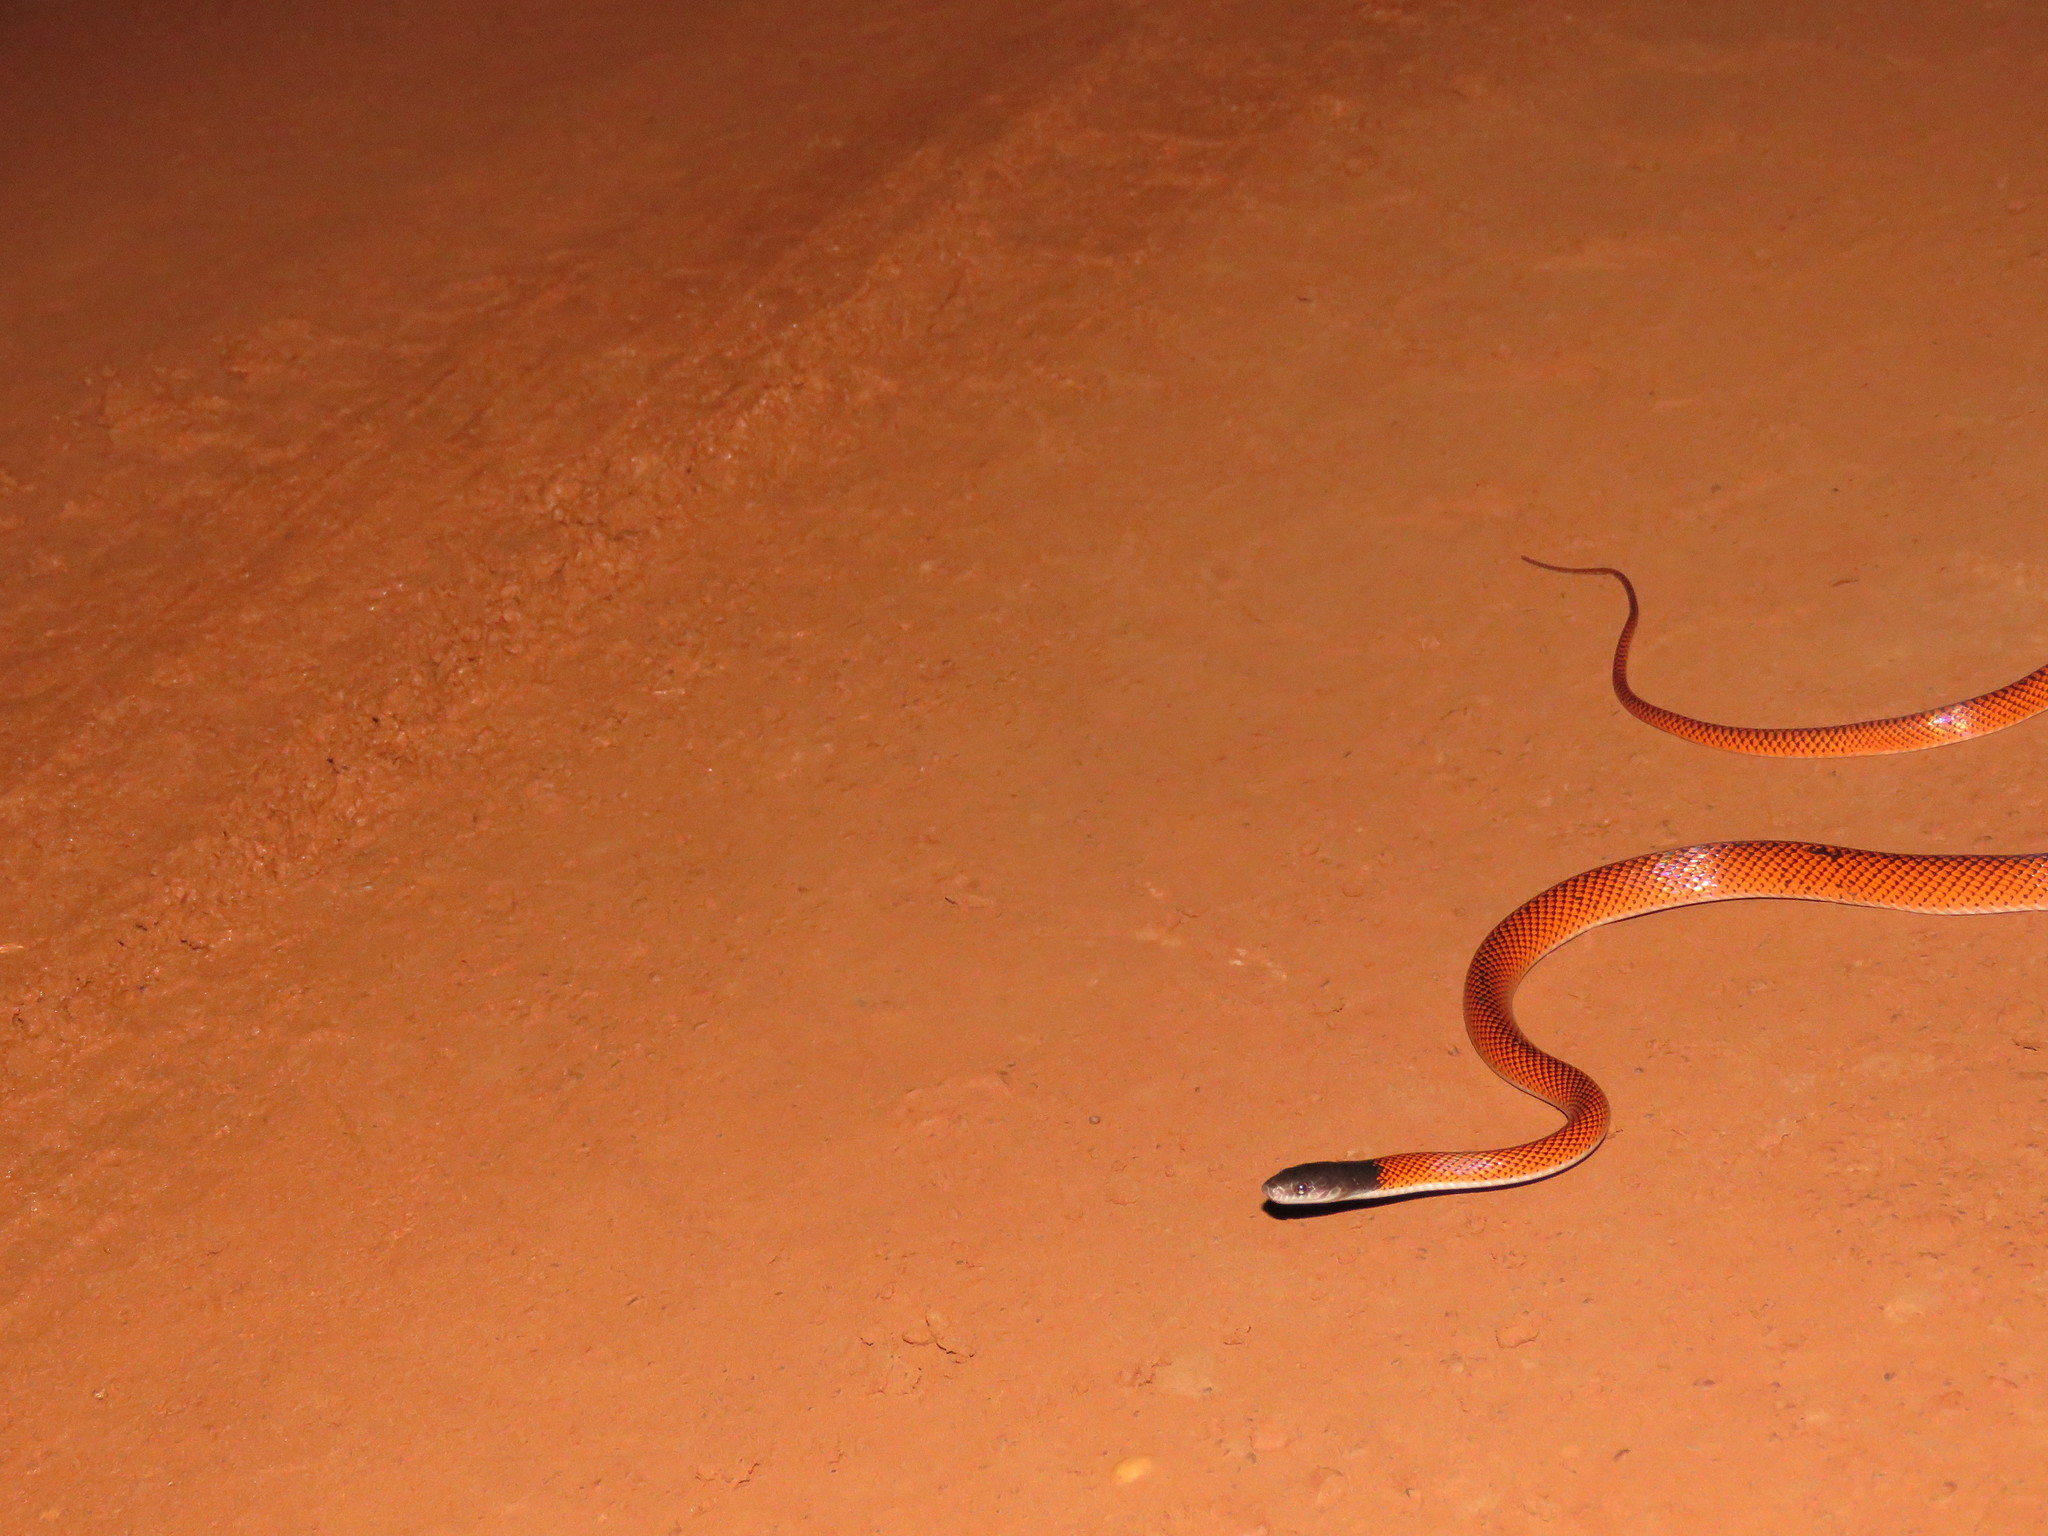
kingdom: Animalia
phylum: Chordata
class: Squamata
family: Colubridae
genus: Oxyrhopus
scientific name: Oxyrhopus melanogenys
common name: Tschudi's false coral snake
